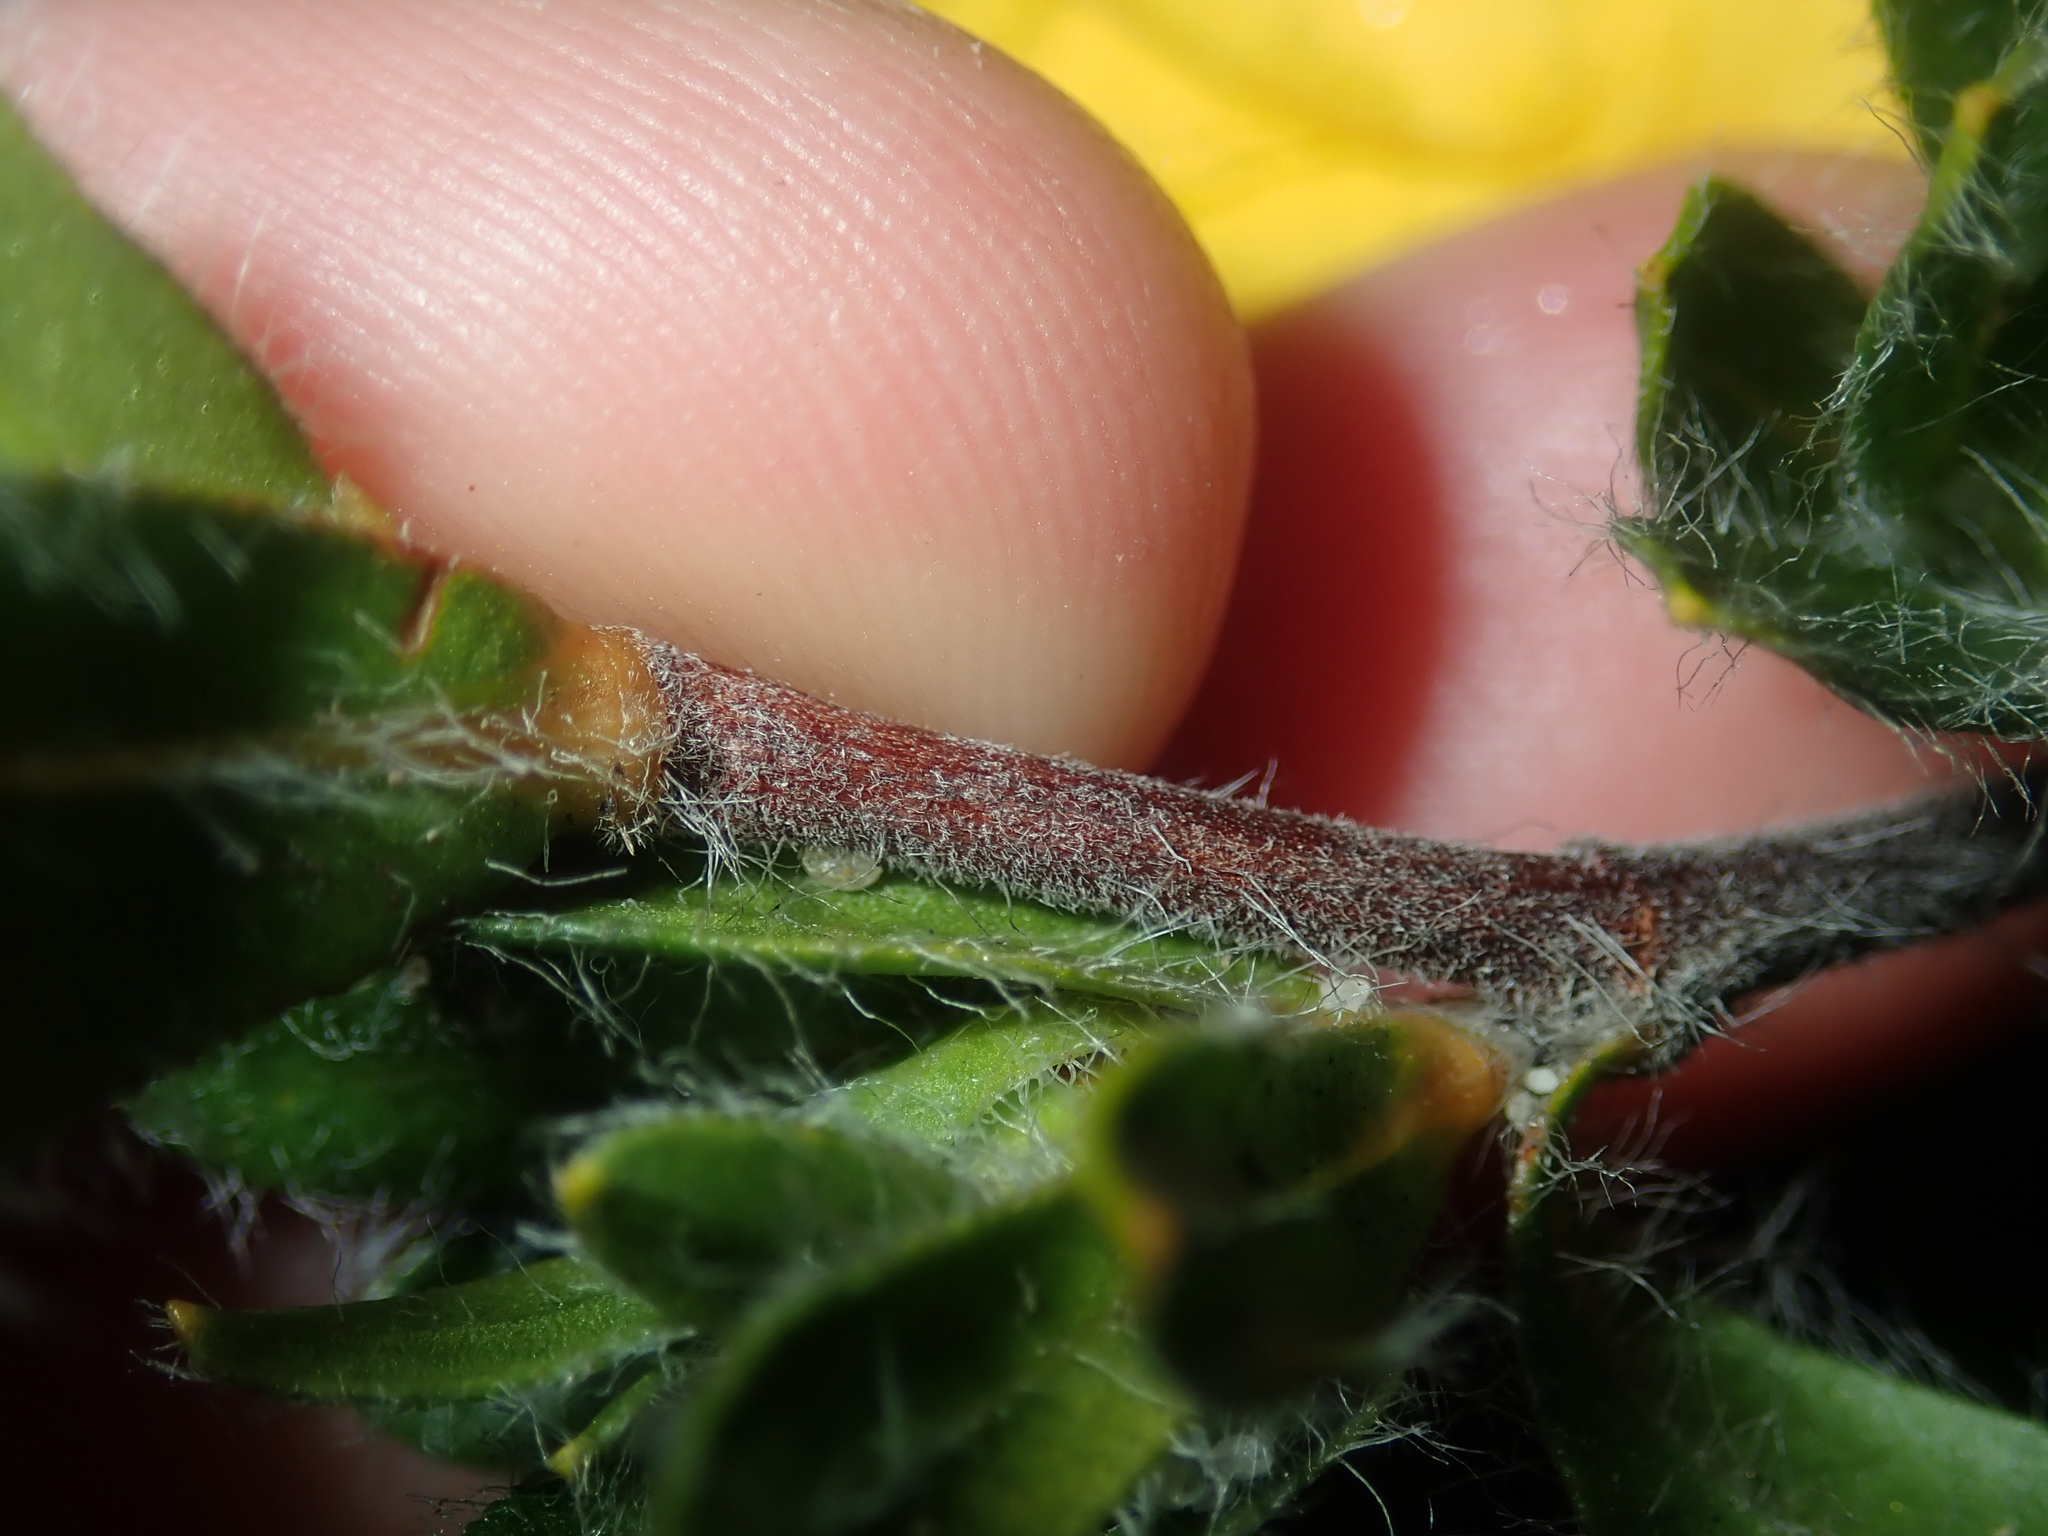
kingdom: Plantae
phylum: Tracheophyta
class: Magnoliopsida
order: Dilleniales
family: Dilleniaceae
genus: Hibbertia
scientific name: Hibbertia mylnei
